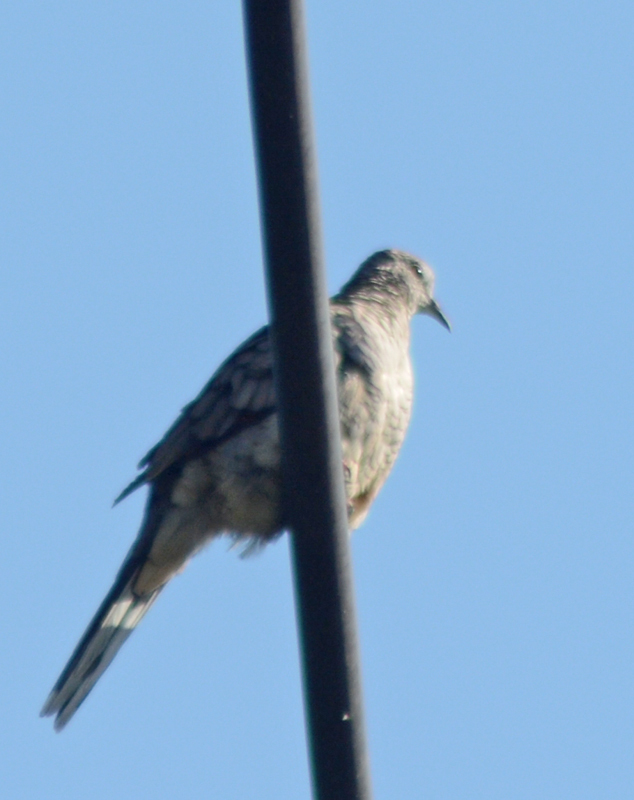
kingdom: Animalia
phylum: Chordata
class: Aves
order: Columbiformes
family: Columbidae
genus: Columbina
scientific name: Columbina inca
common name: Inca dove
